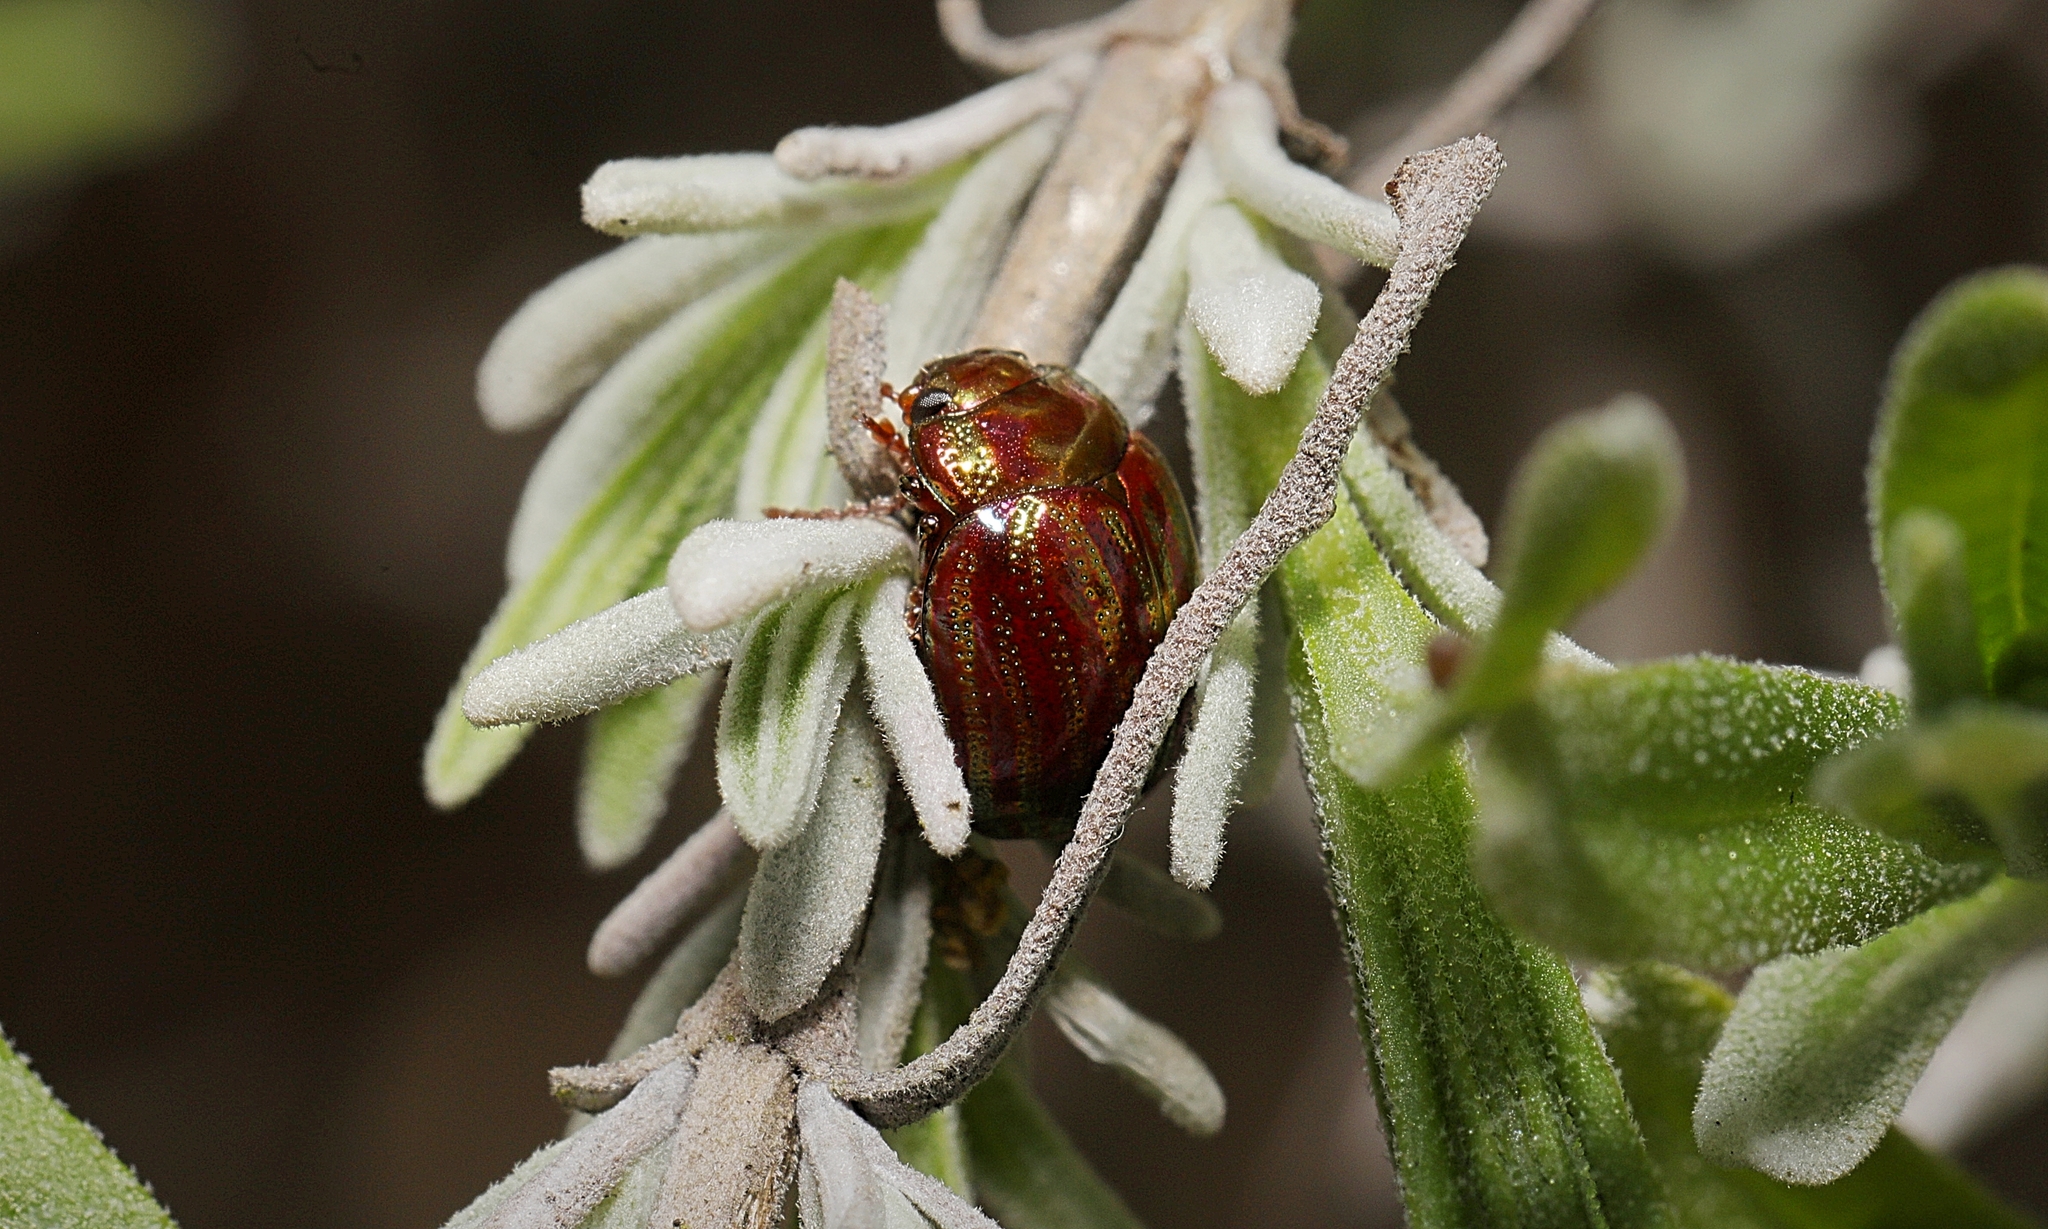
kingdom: Animalia
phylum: Arthropoda
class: Insecta
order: Coleoptera
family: Chrysomelidae
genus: Chrysolina
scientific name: Chrysolina americana
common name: Rosemary beetle
